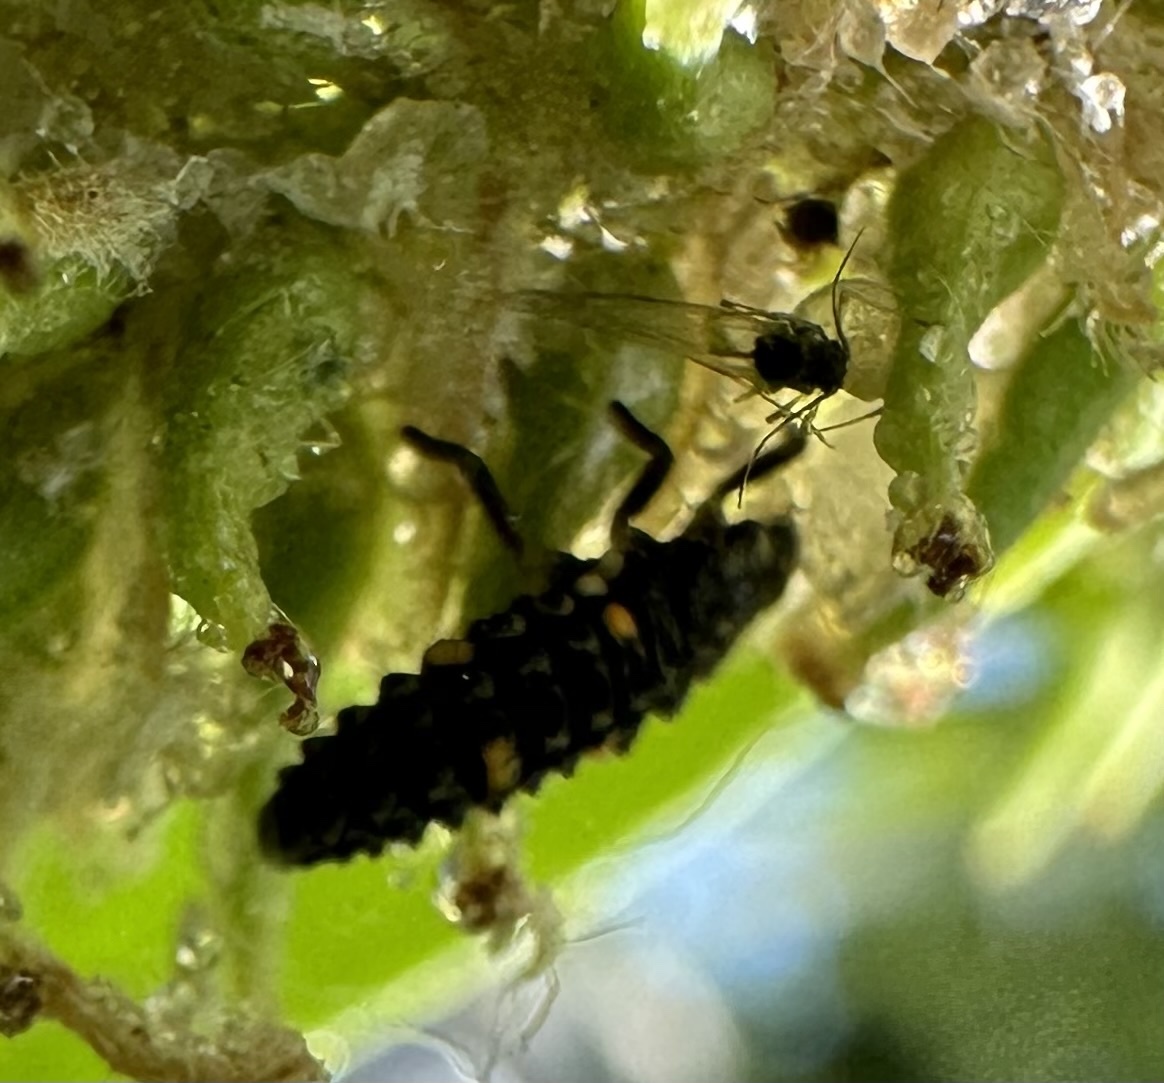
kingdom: Animalia
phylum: Arthropoda
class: Insecta
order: Coleoptera
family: Coccinellidae
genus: Adalia
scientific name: Adalia bipunctata
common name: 2-spot ladybird
